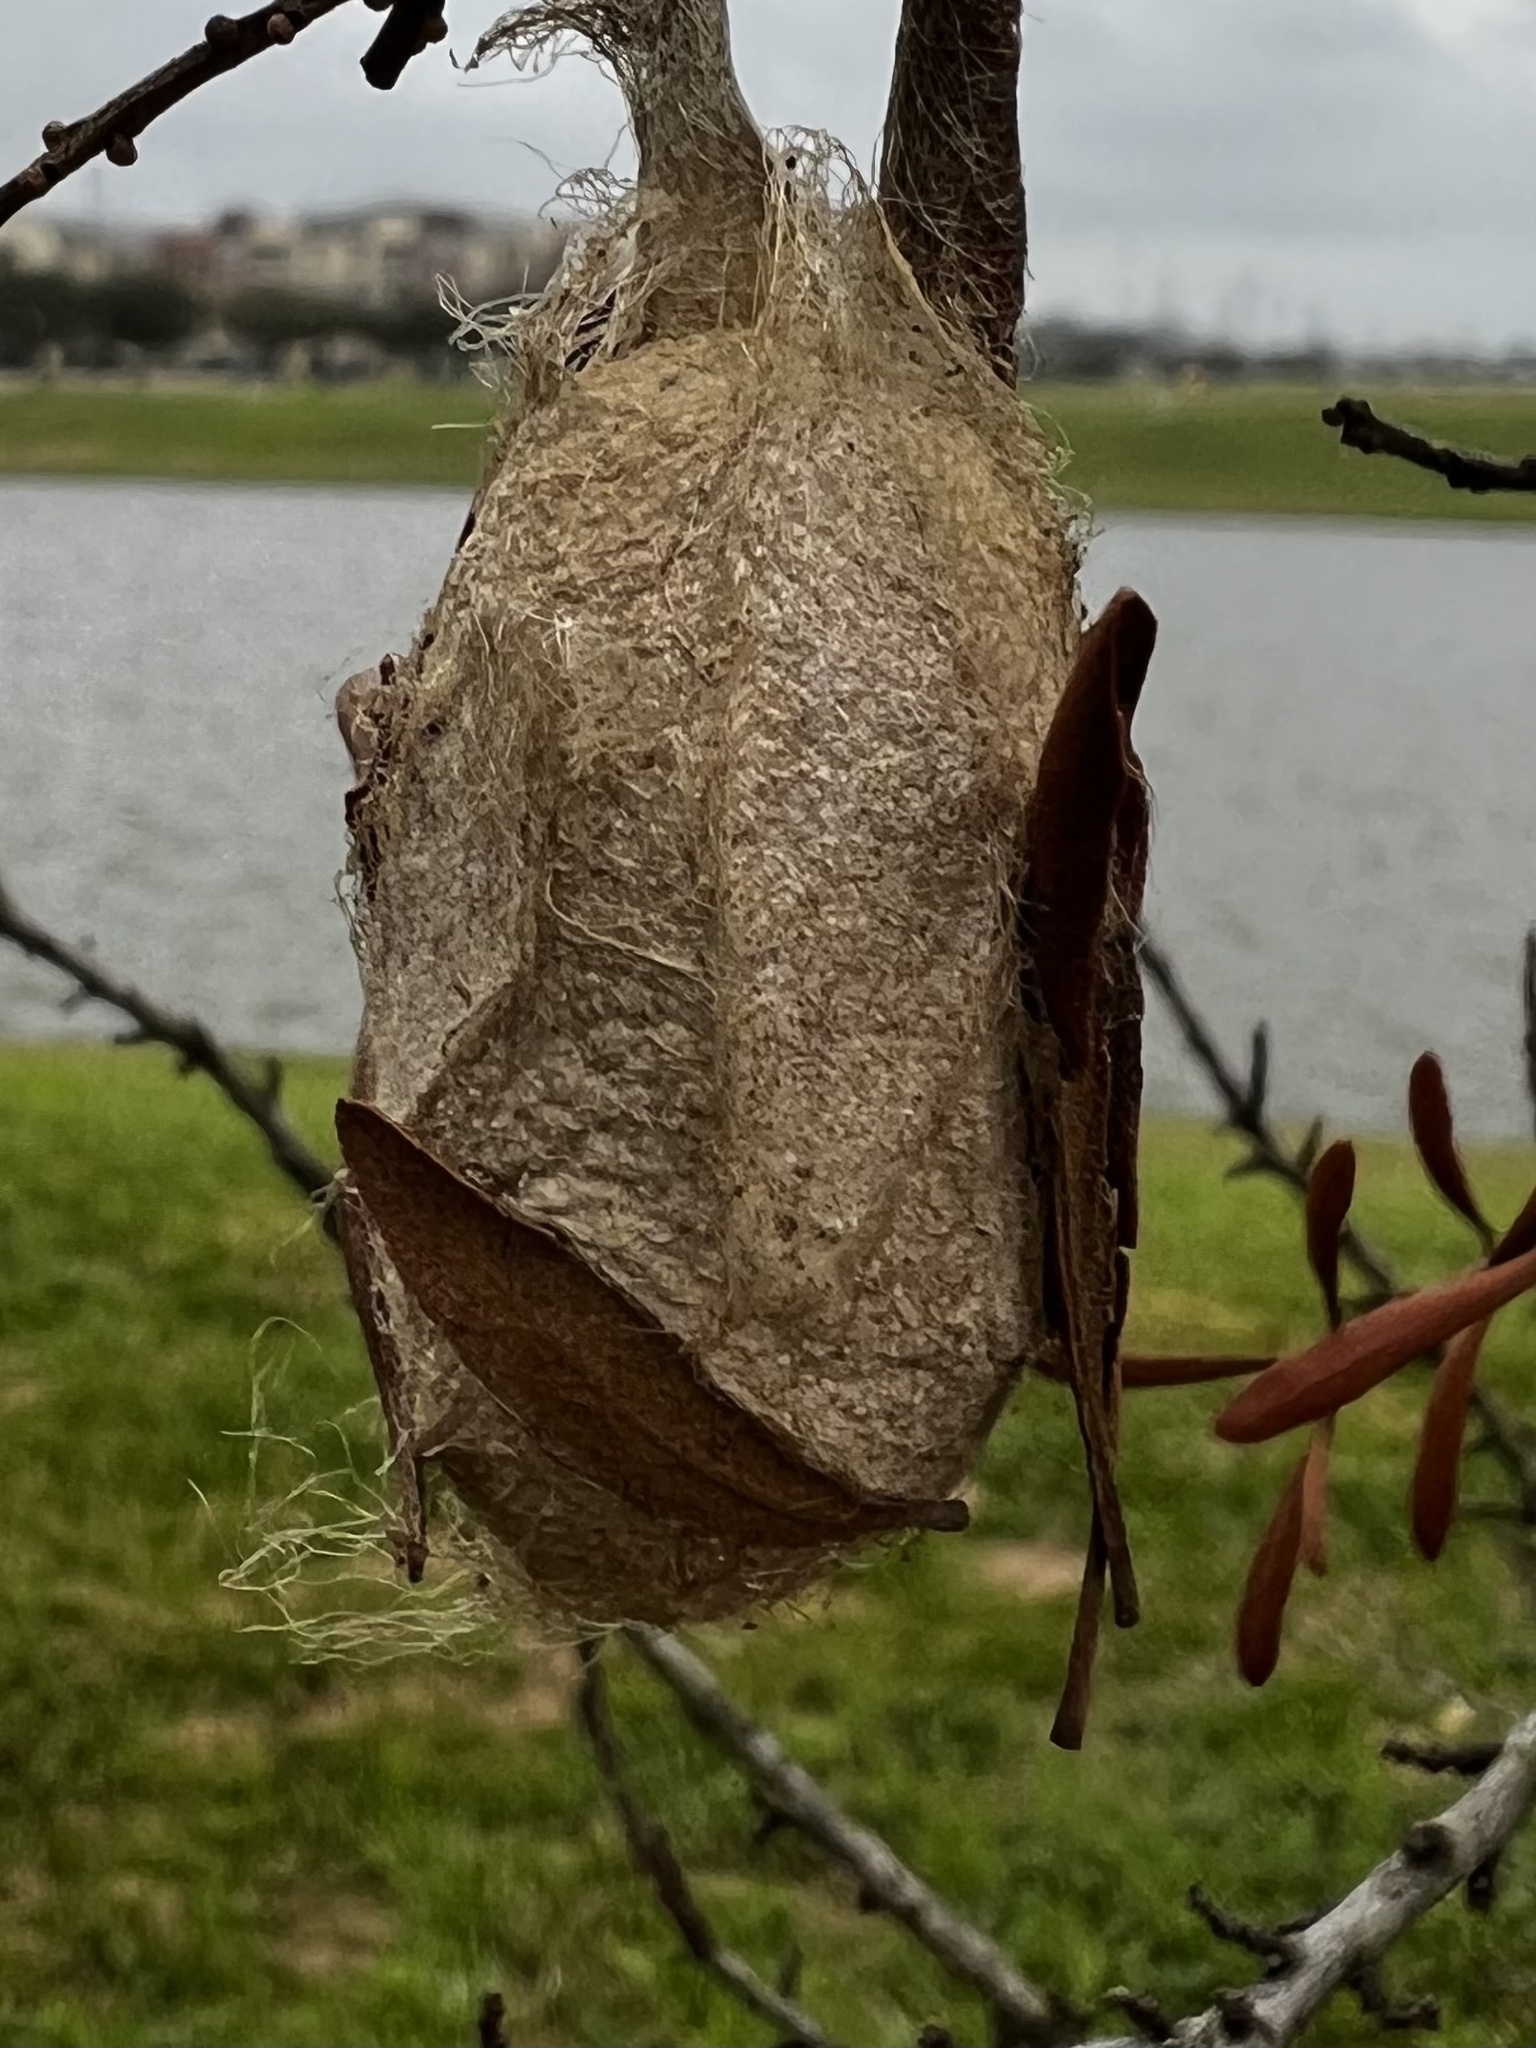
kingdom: Animalia
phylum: Arthropoda
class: Insecta
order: Lepidoptera
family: Saturniidae
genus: Antheraea
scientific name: Antheraea polyphemus
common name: Polyphemus moth
